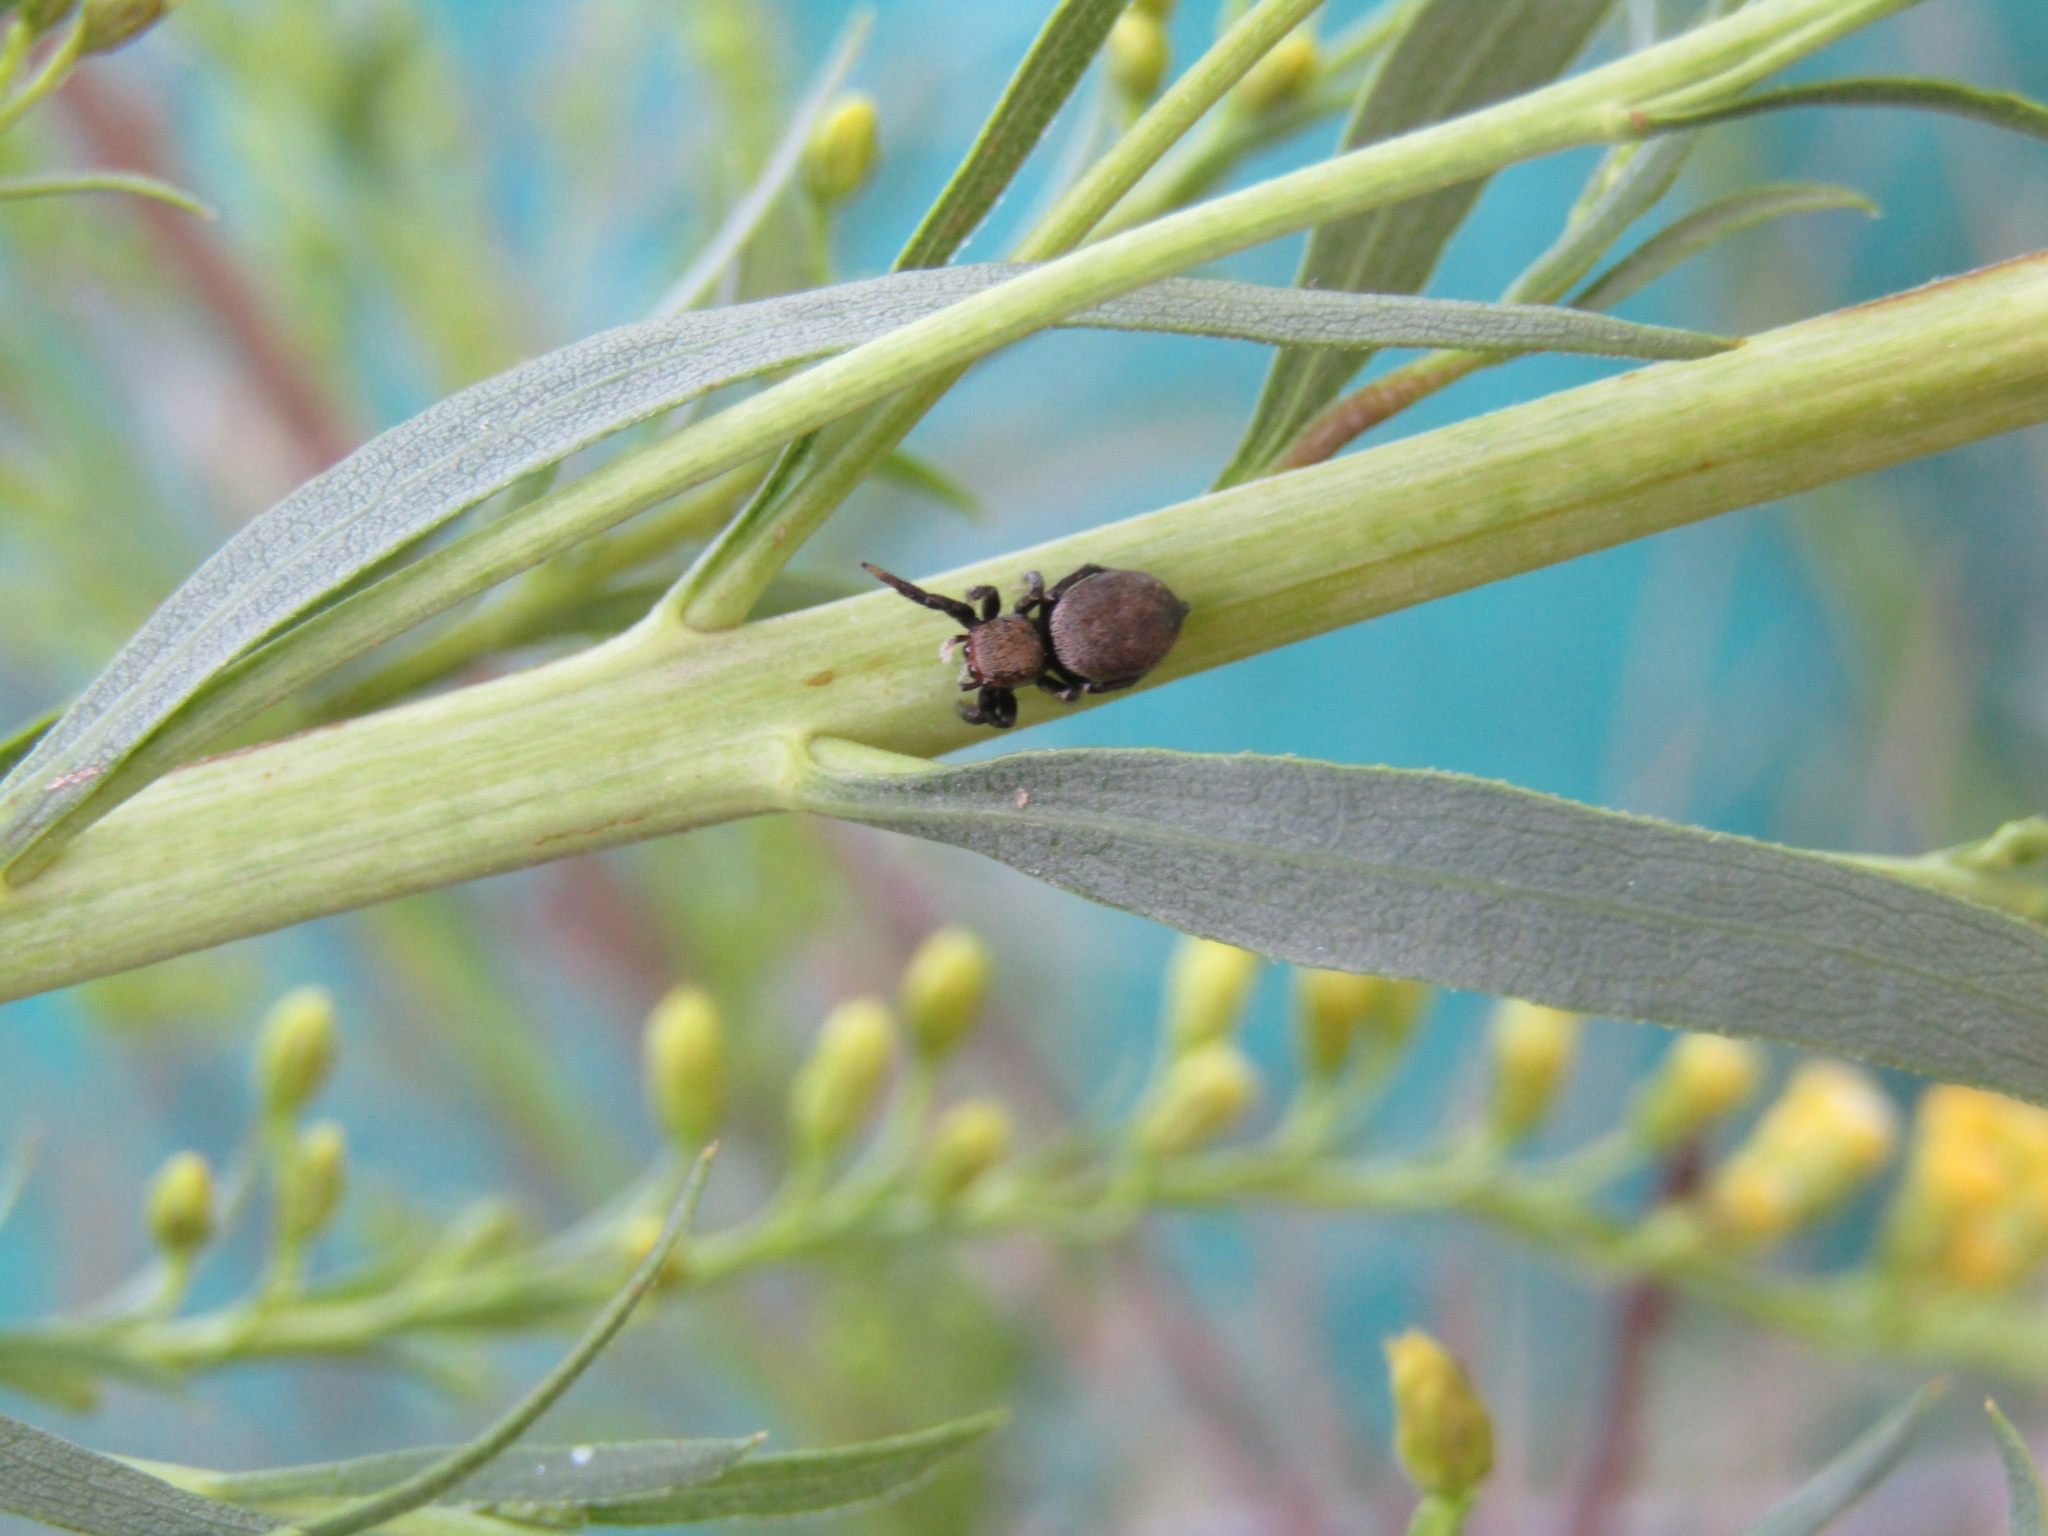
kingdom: Animalia
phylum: Arthropoda
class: Arachnida
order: Araneae
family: Salticidae
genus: Phiale
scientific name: Phiale roburifoliata
